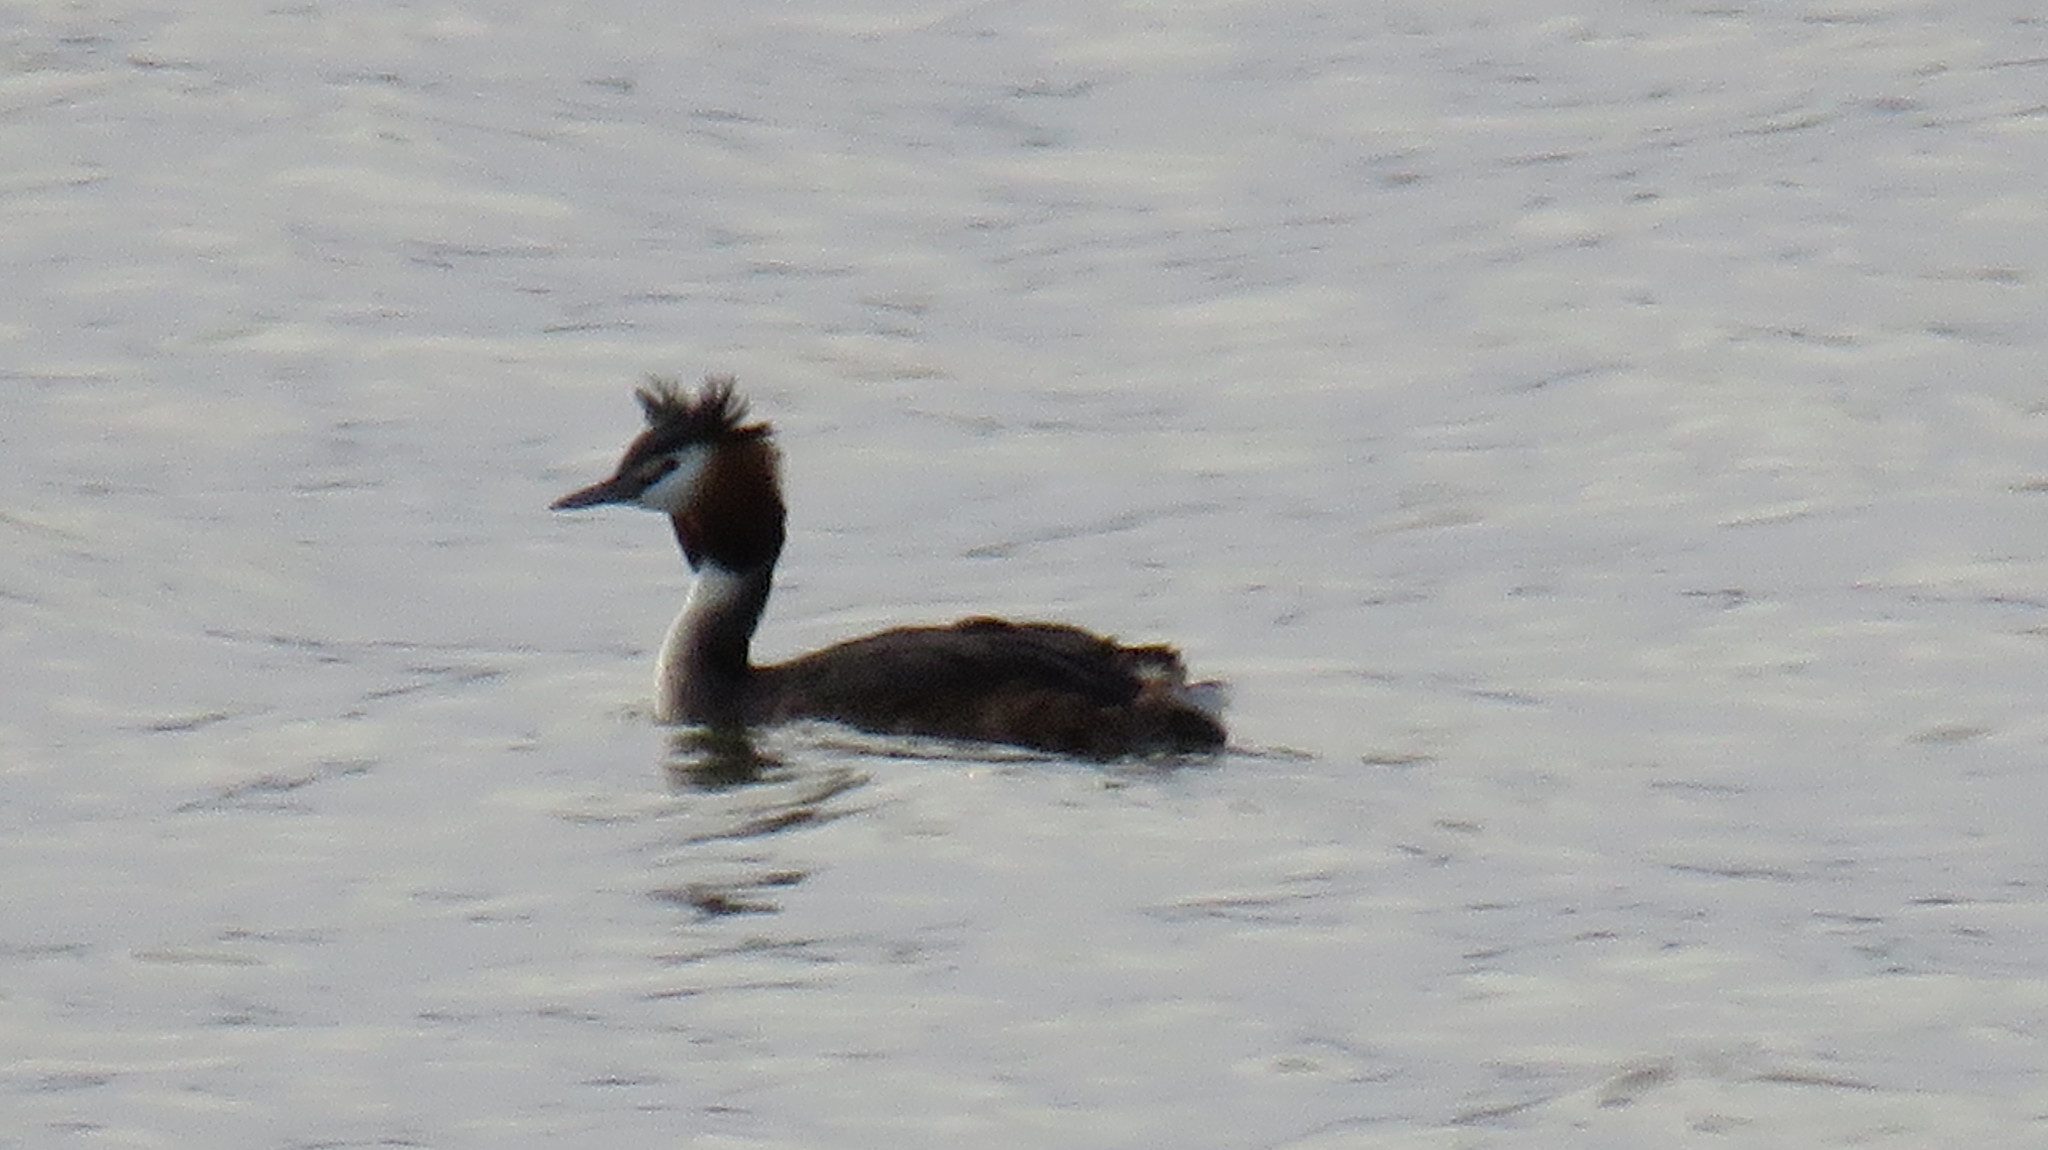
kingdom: Animalia
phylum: Chordata
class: Aves
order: Podicipediformes
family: Podicipedidae
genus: Podiceps
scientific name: Podiceps cristatus
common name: Great crested grebe
